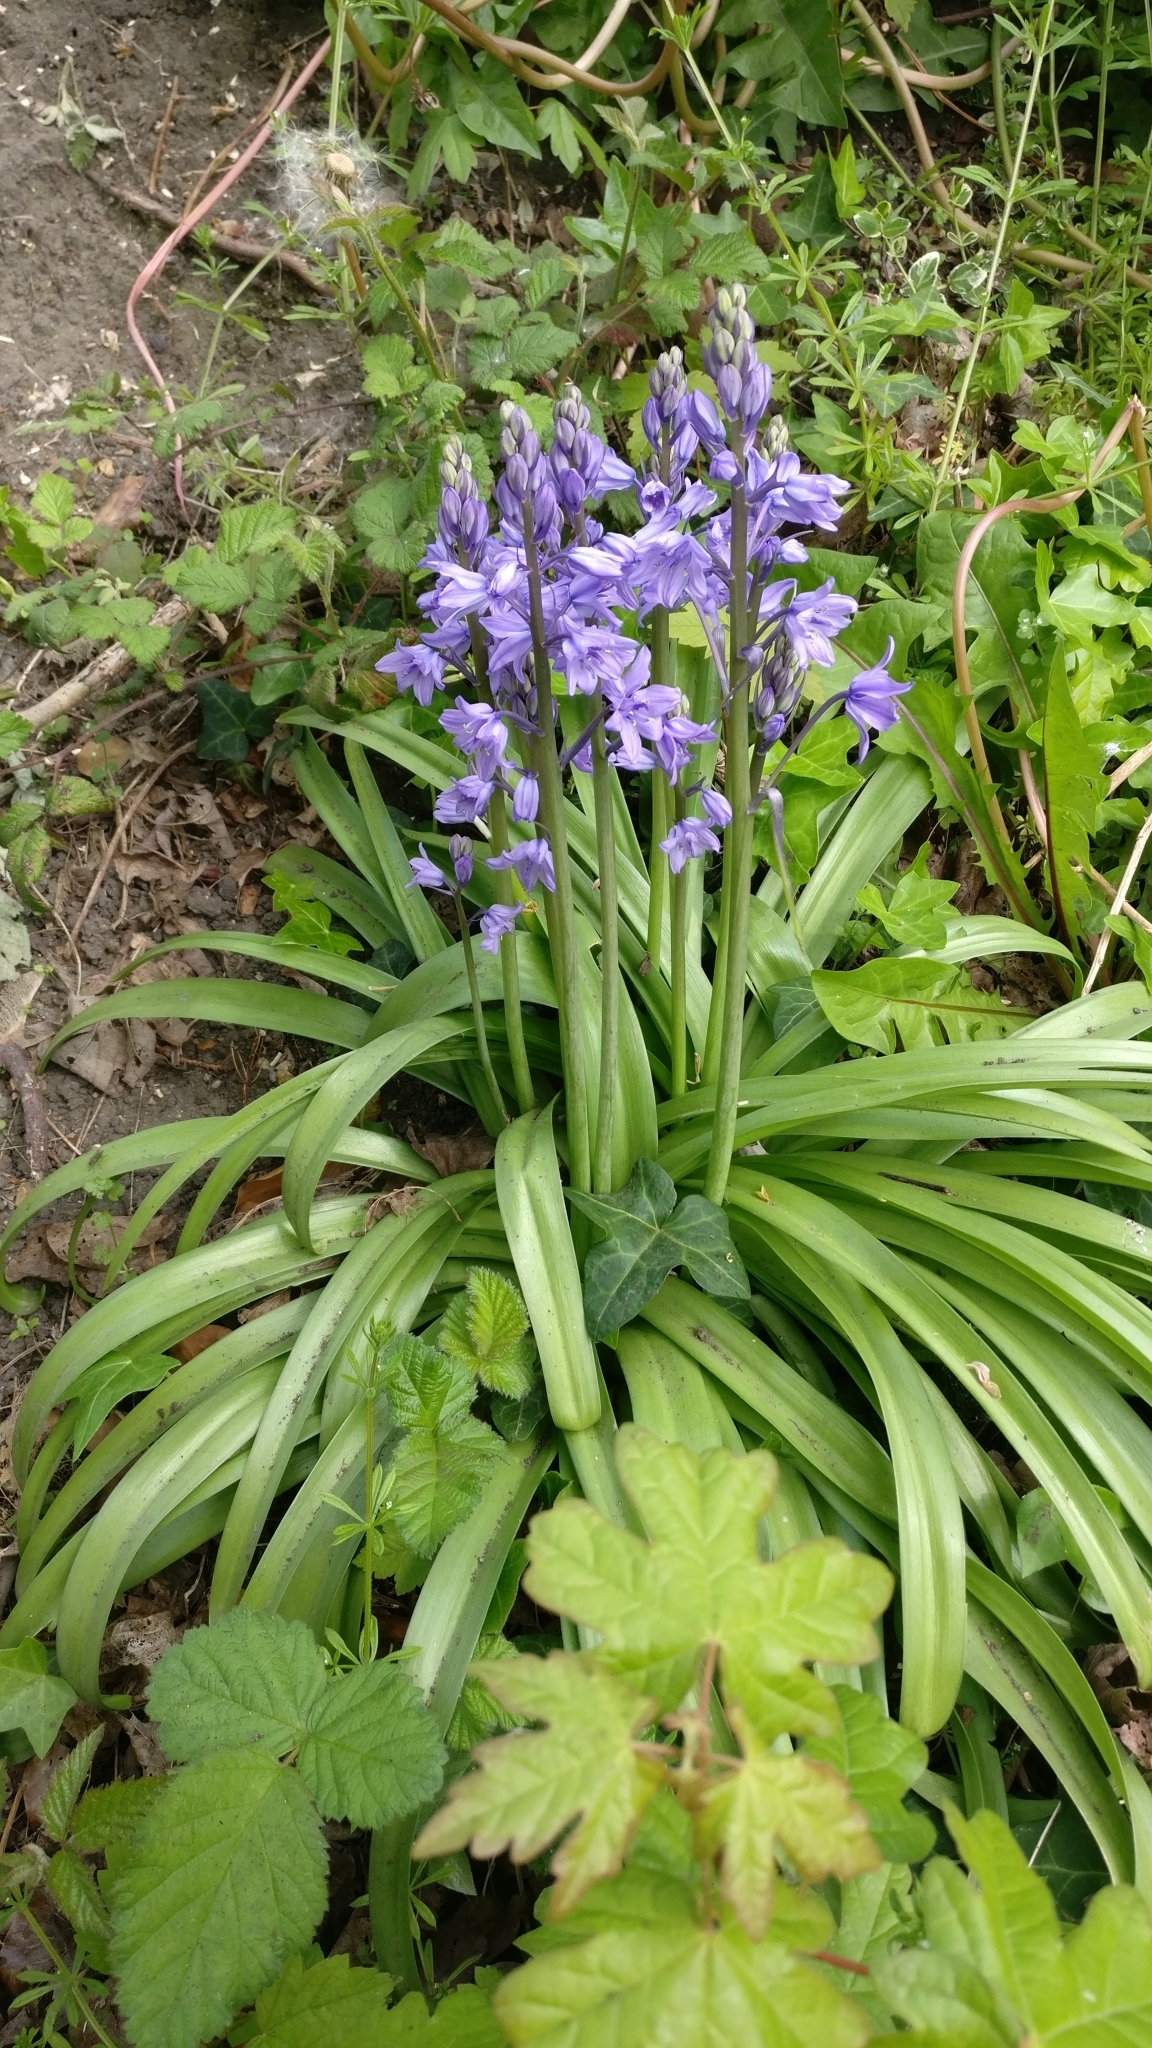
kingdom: Plantae
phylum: Tracheophyta
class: Liliopsida
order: Asparagales
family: Asparagaceae
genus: Hyacinthoides
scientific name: Hyacinthoides hispanica
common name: Spanish bluebell
